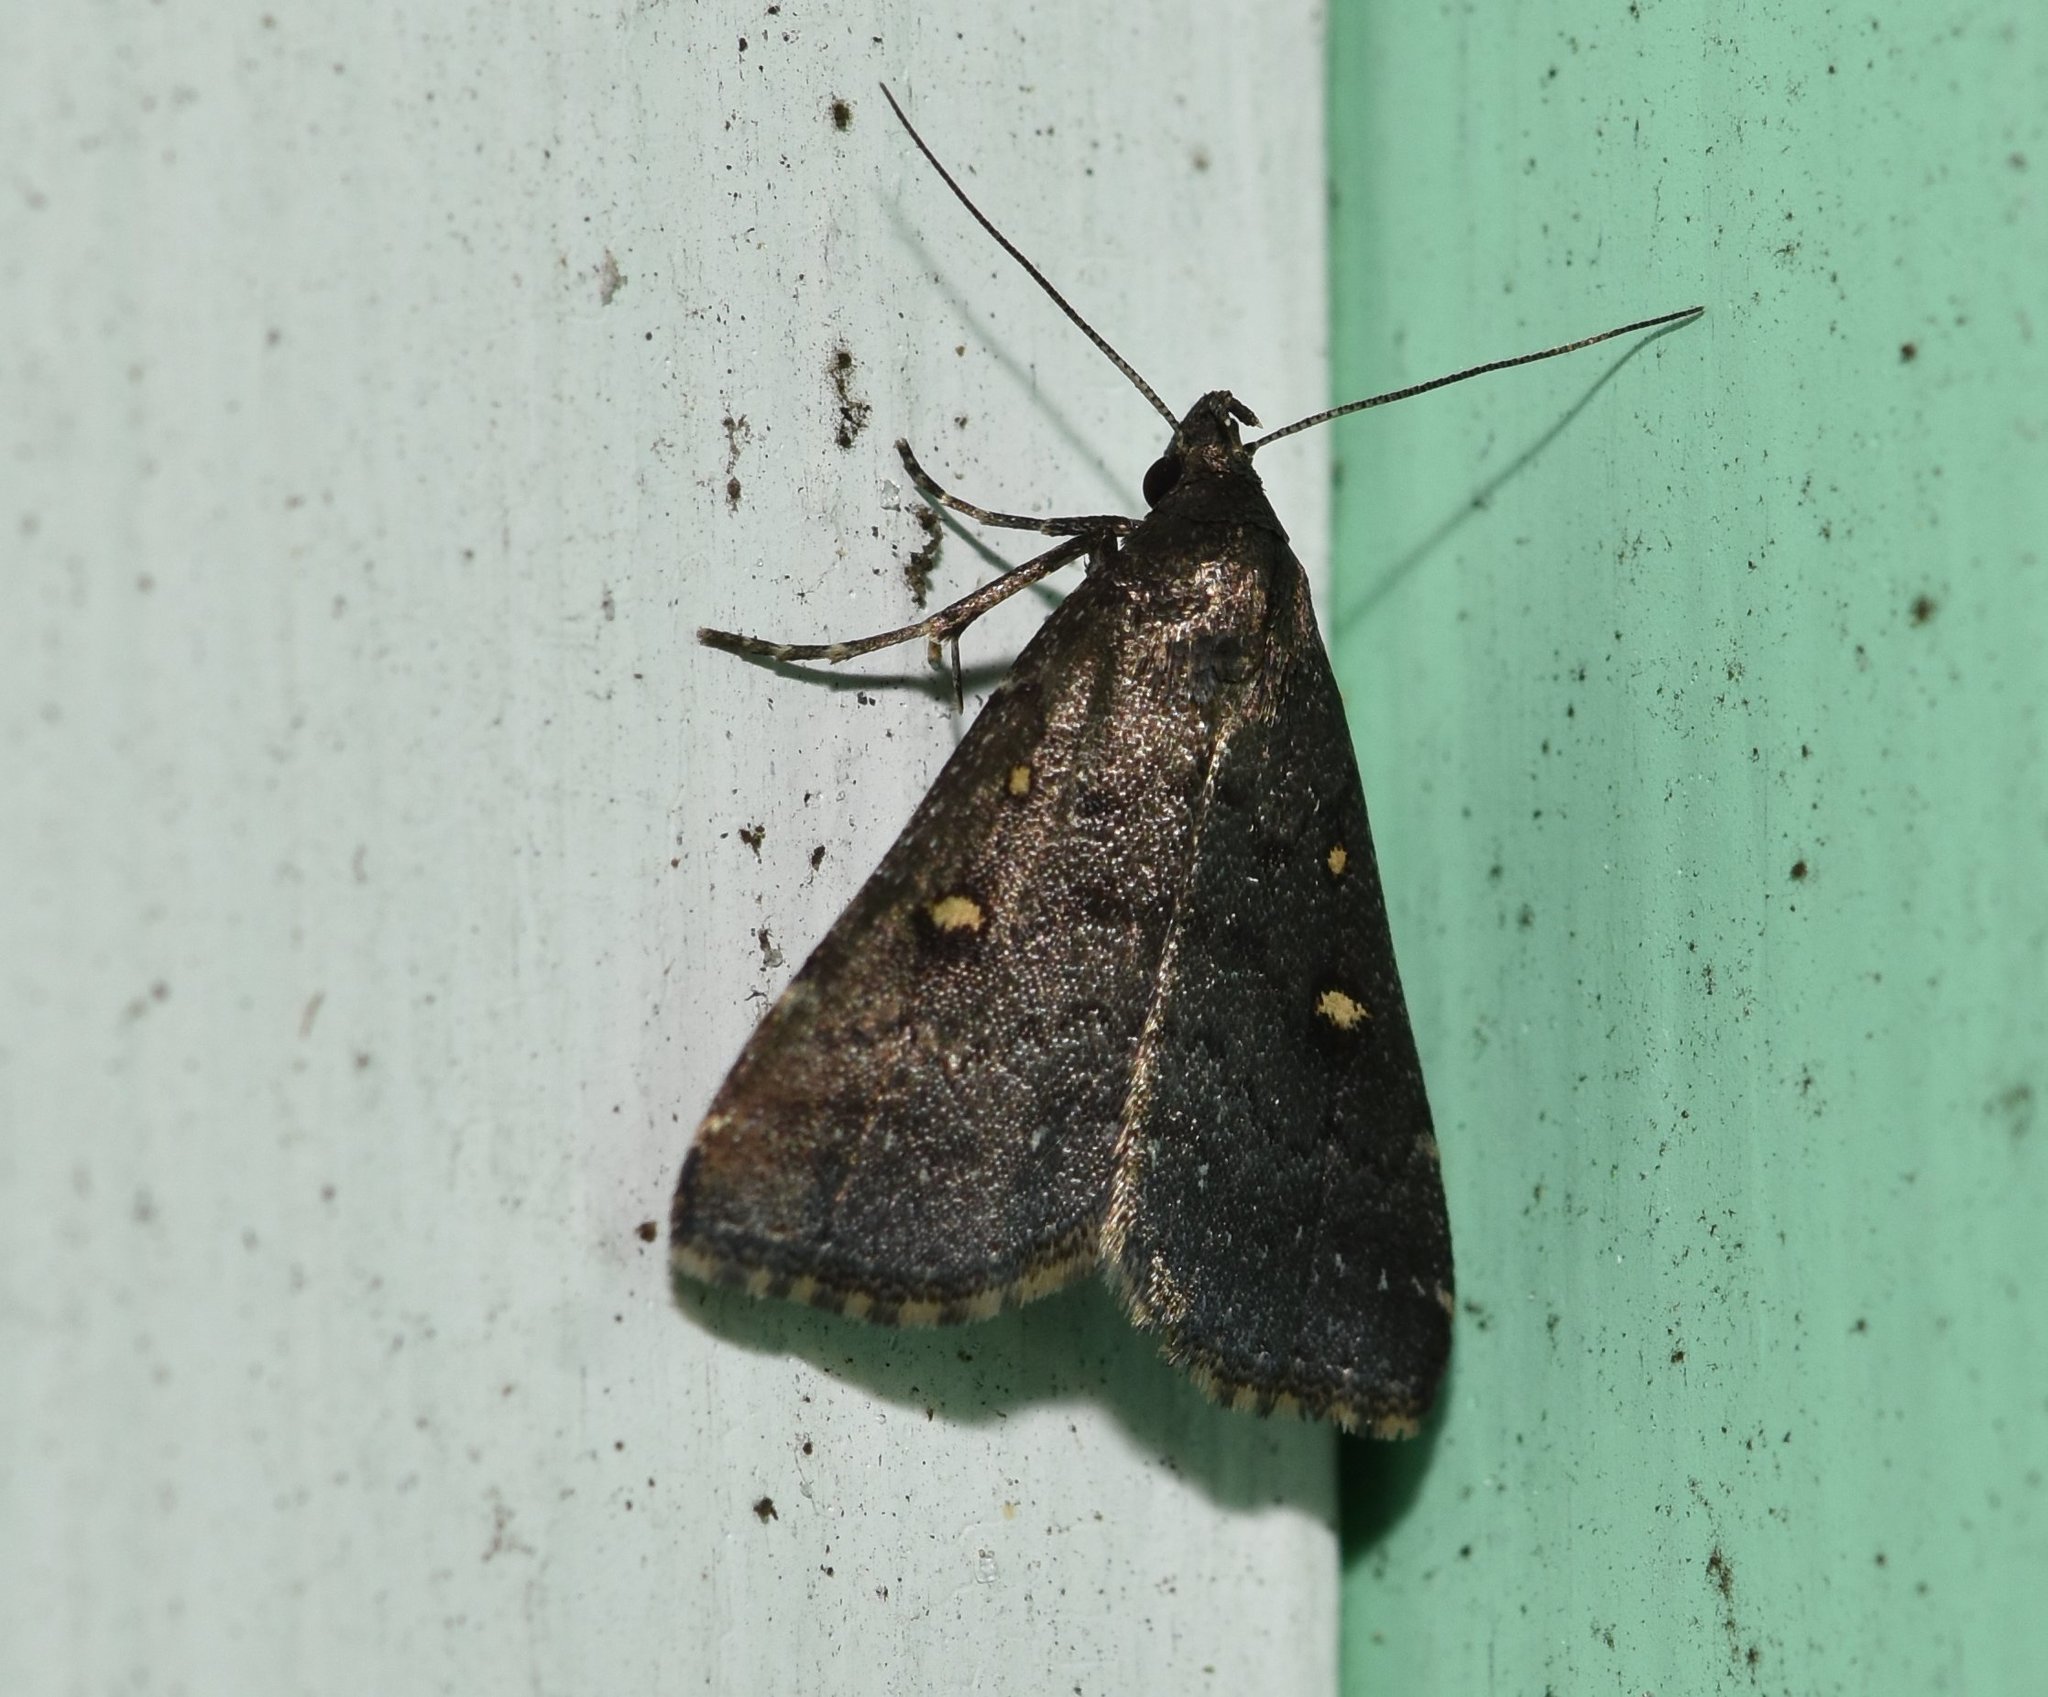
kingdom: Animalia
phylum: Arthropoda
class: Insecta
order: Lepidoptera
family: Erebidae
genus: Tetanolita
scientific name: Tetanolita mynesalis
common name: Smoky tetanolita moth
